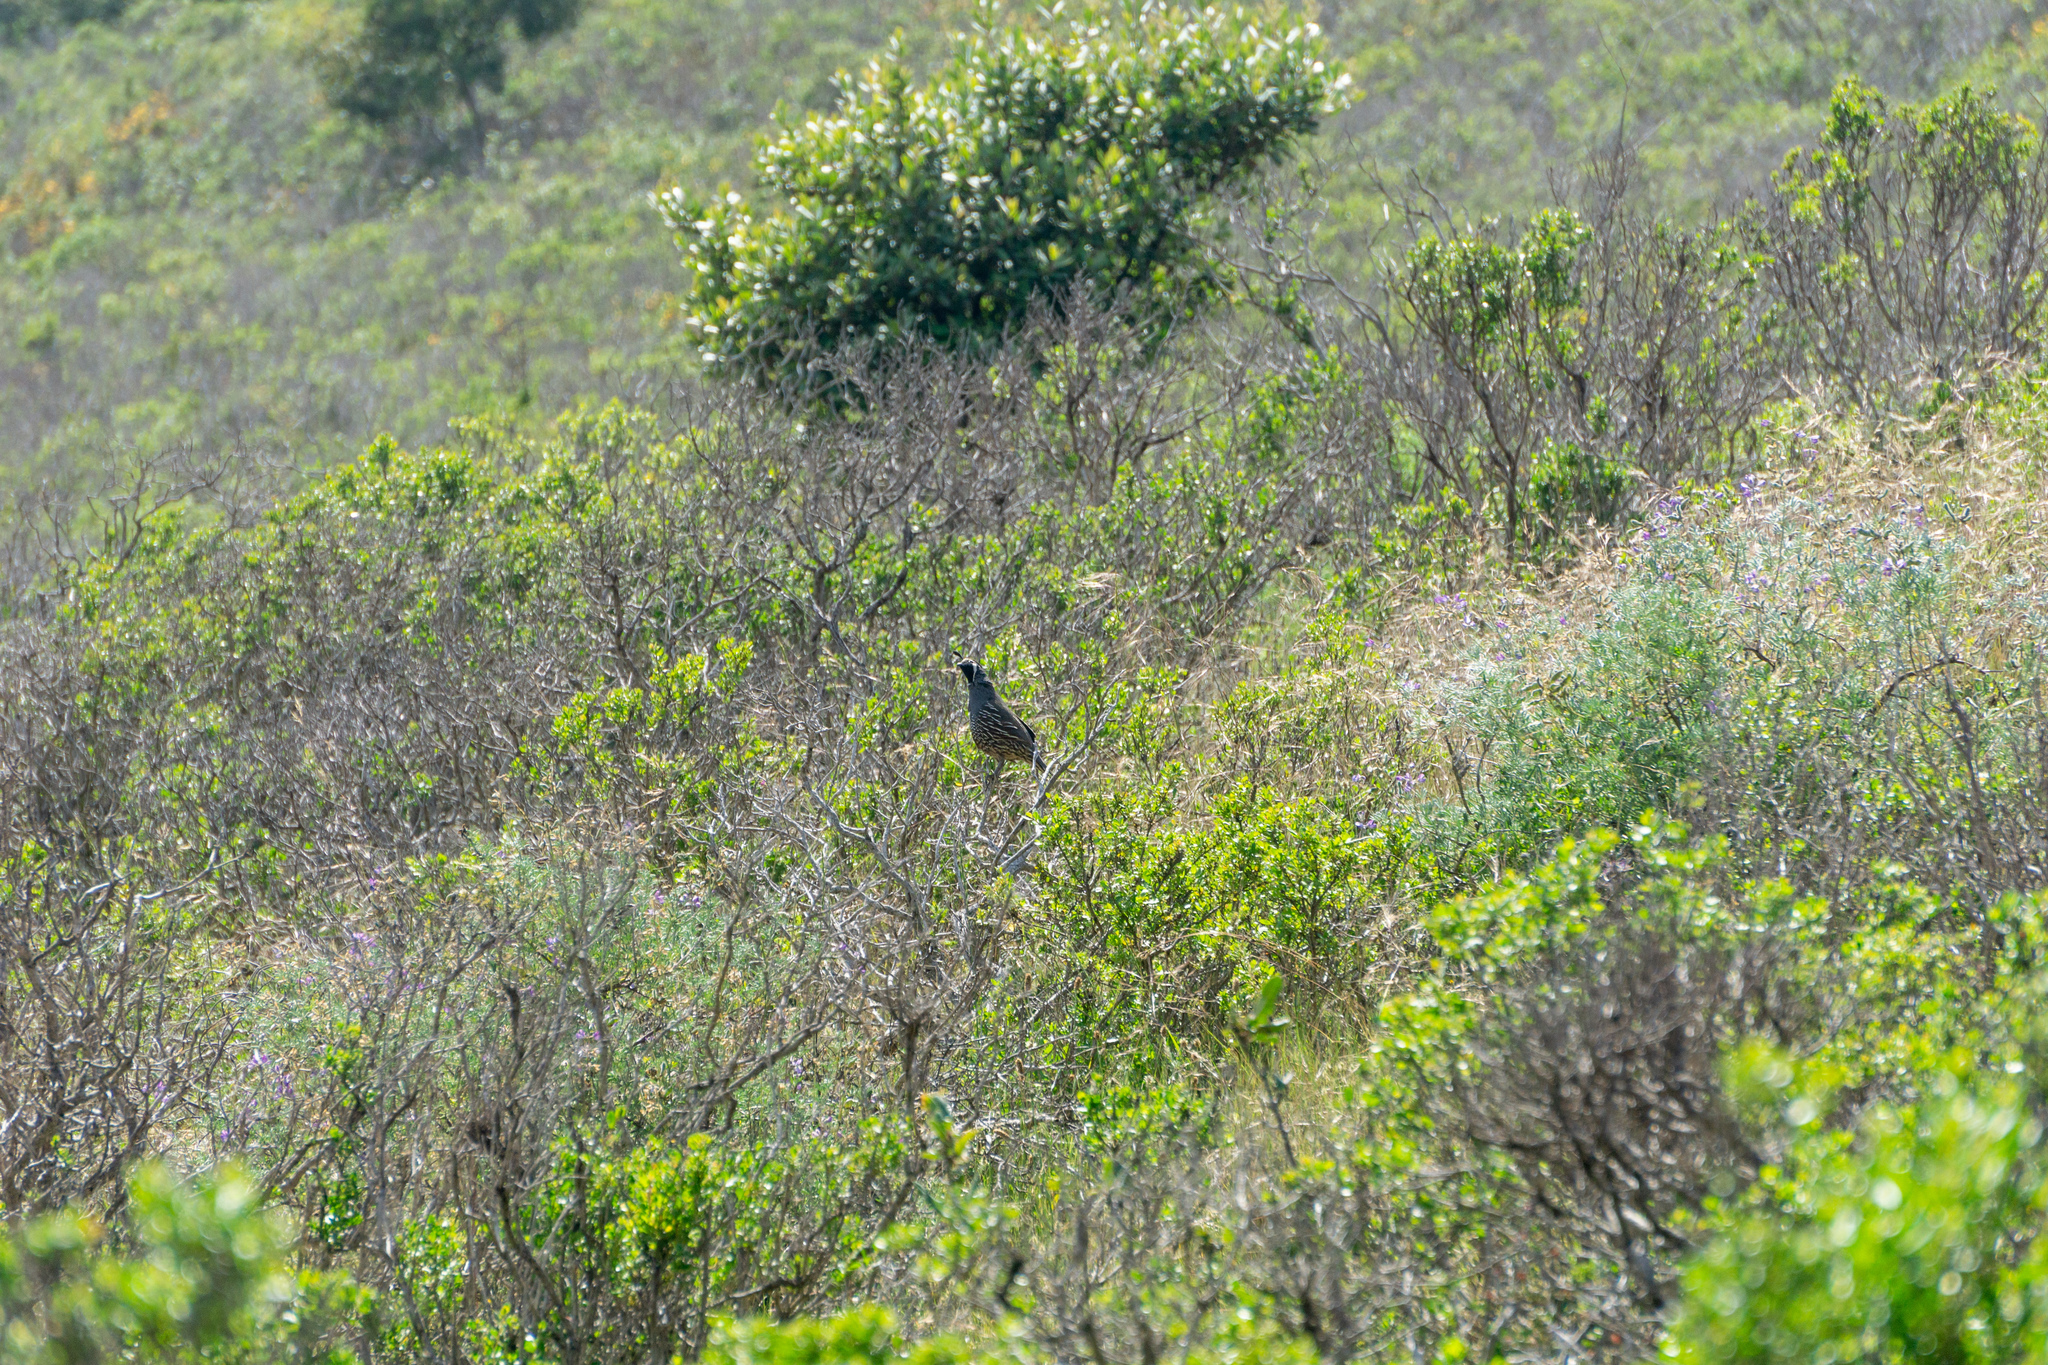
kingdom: Animalia
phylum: Chordata
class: Aves
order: Galliformes
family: Odontophoridae
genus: Callipepla
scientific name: Callipepla californica
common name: California quail
